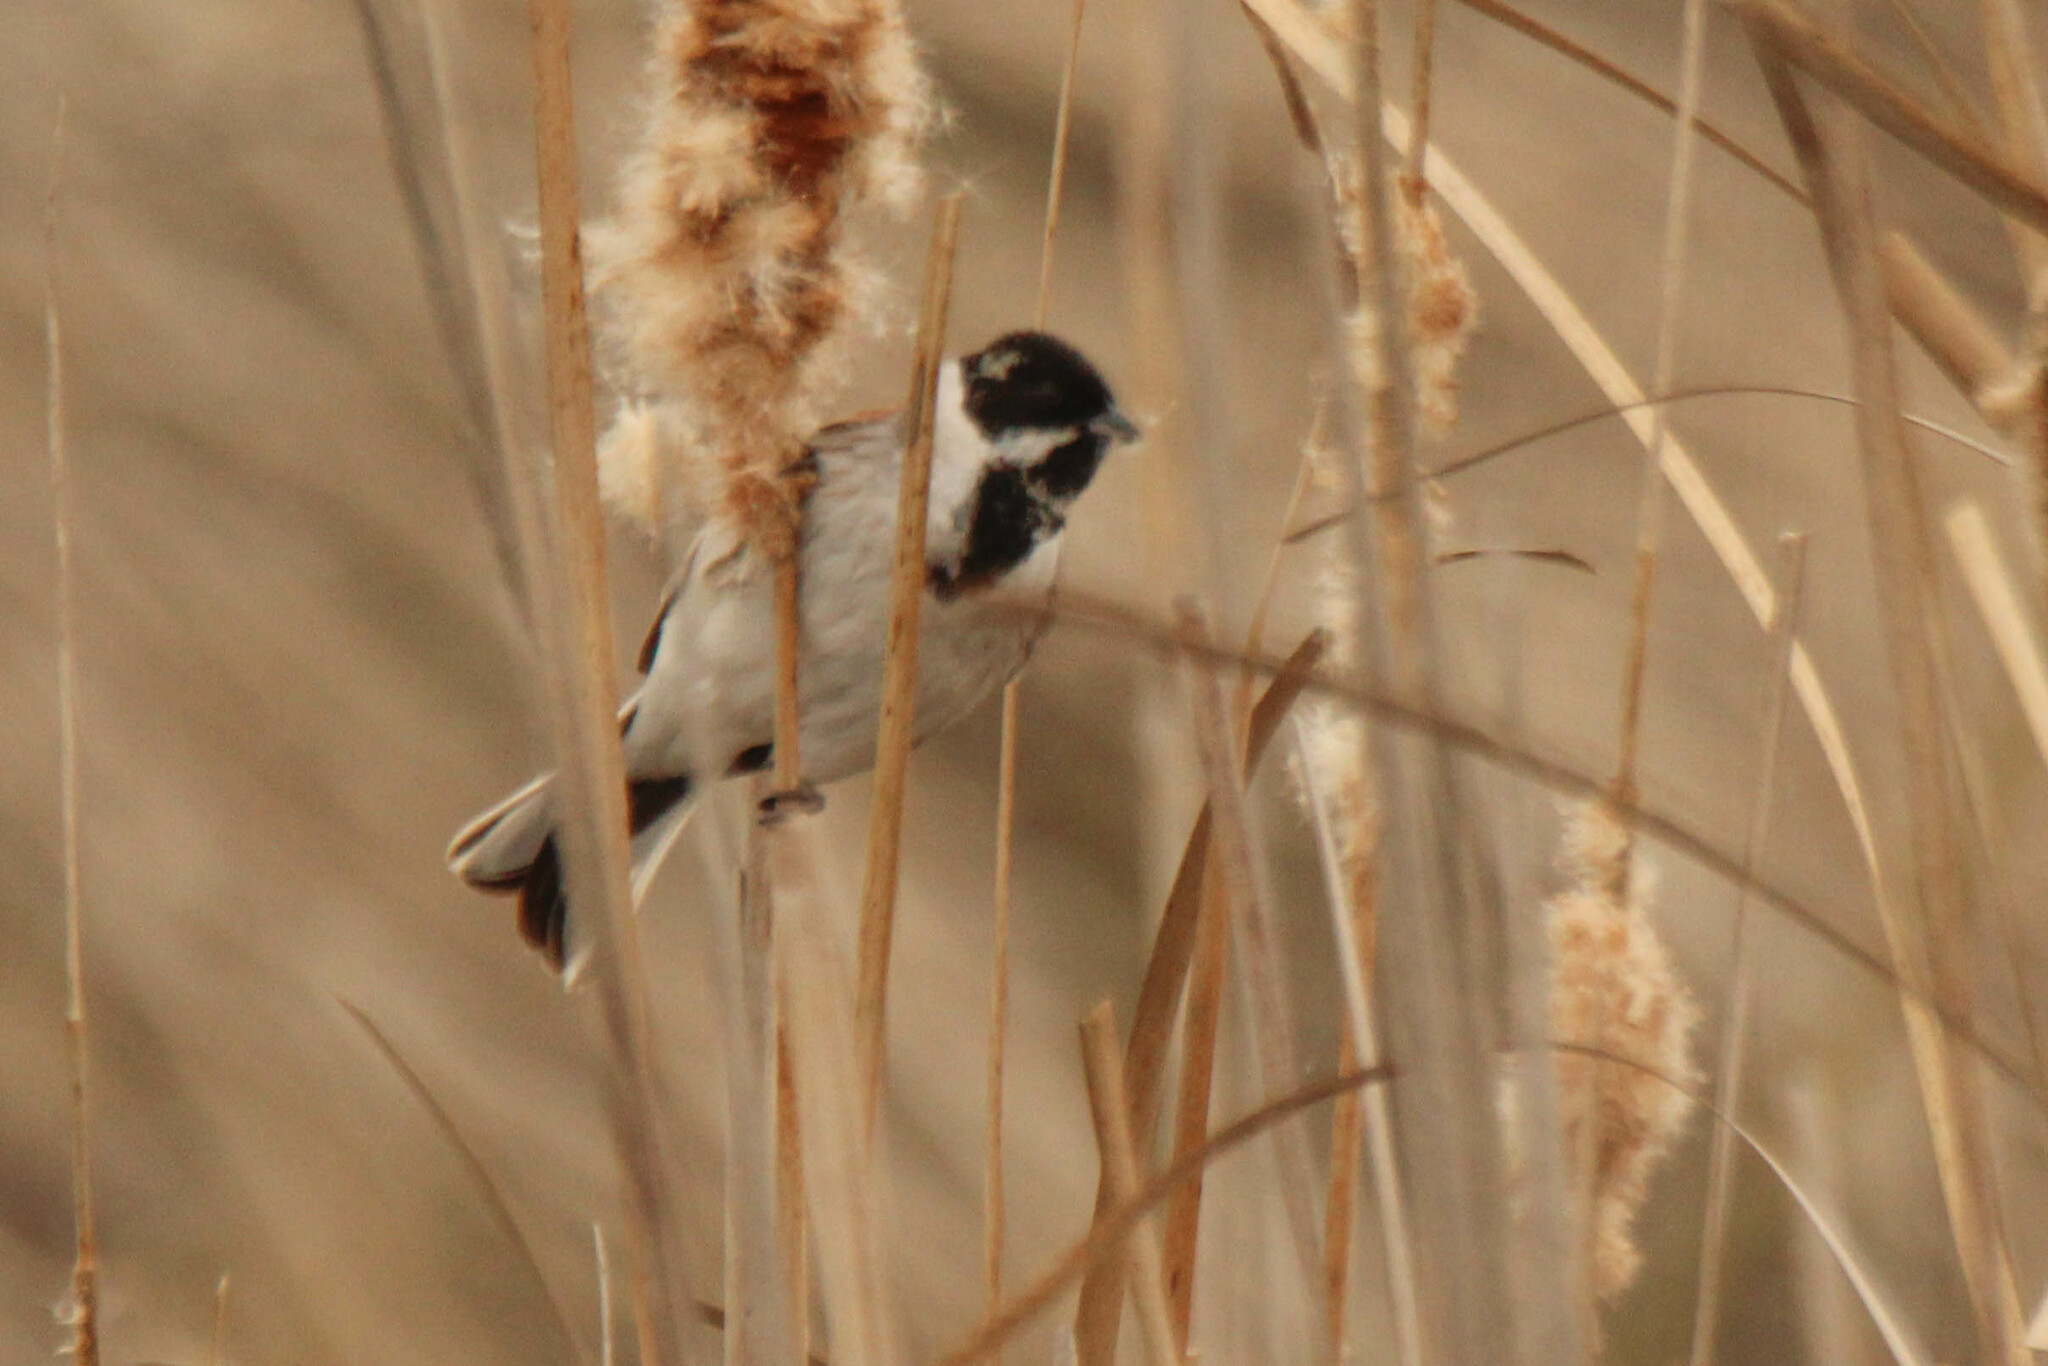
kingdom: Animalia
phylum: Chordata
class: Aves
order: Passeriformes
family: Emberizidae
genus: Emberiza
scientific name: Emberiza schoeniclus
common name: Reed bunting
